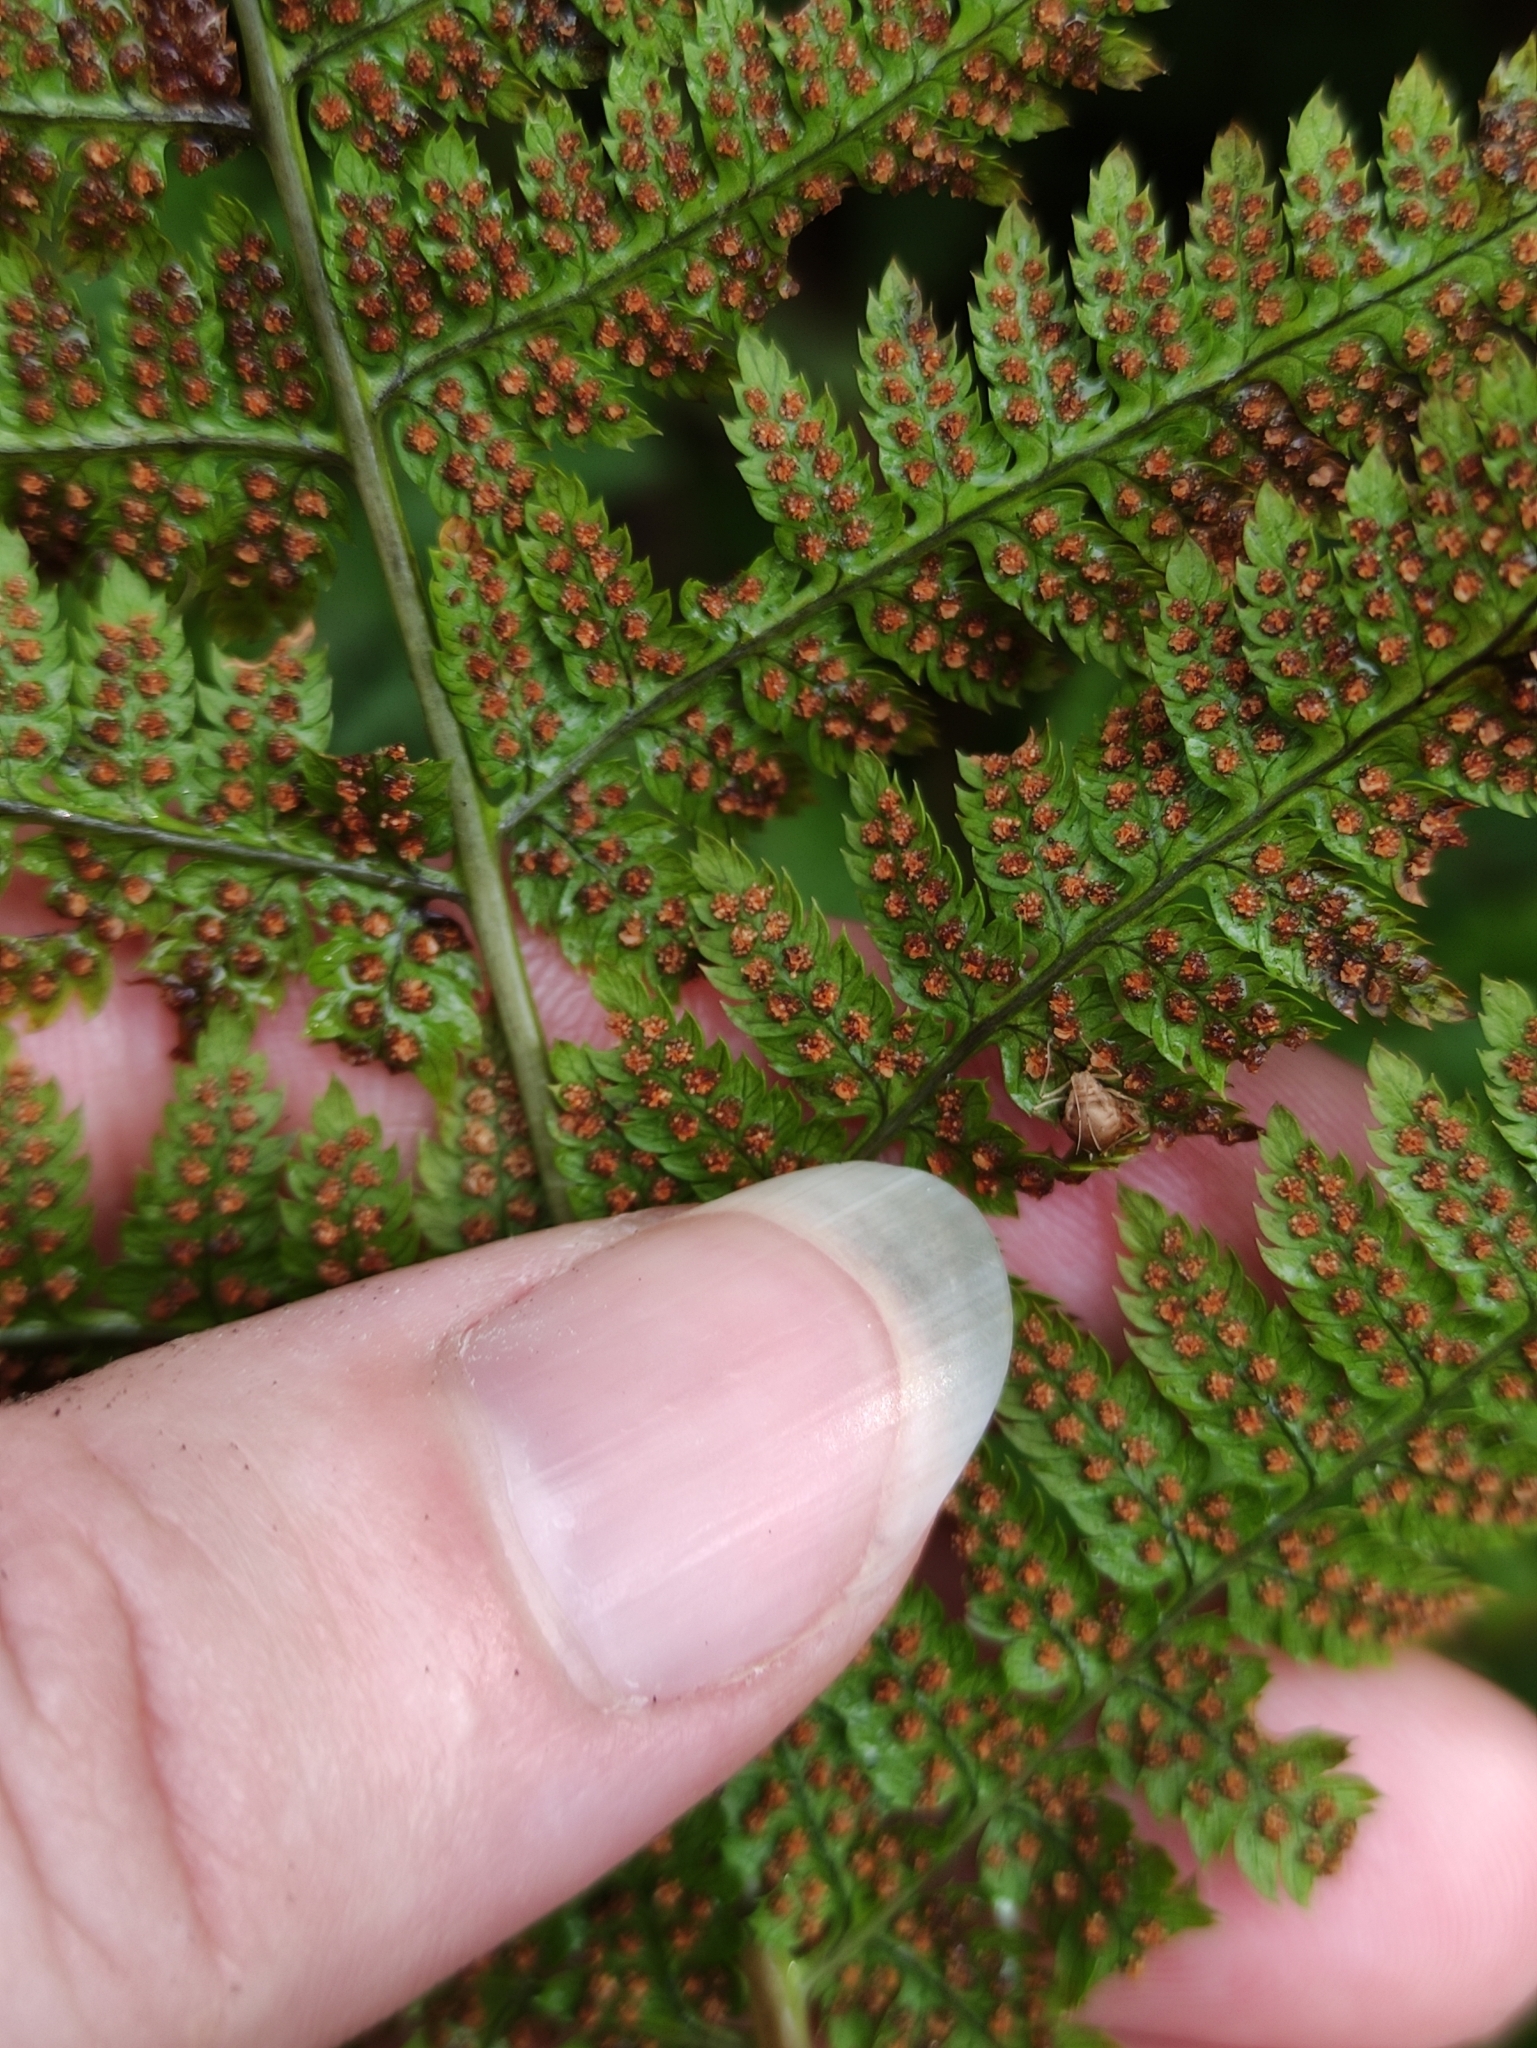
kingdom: Plantae
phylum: Tracheophyta
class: Polypodiopsida
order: Polypodiales
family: Dryopteridaceae
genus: Dryopteris
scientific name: Dryopteris carthusiana
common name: Narrow buckler-fern
